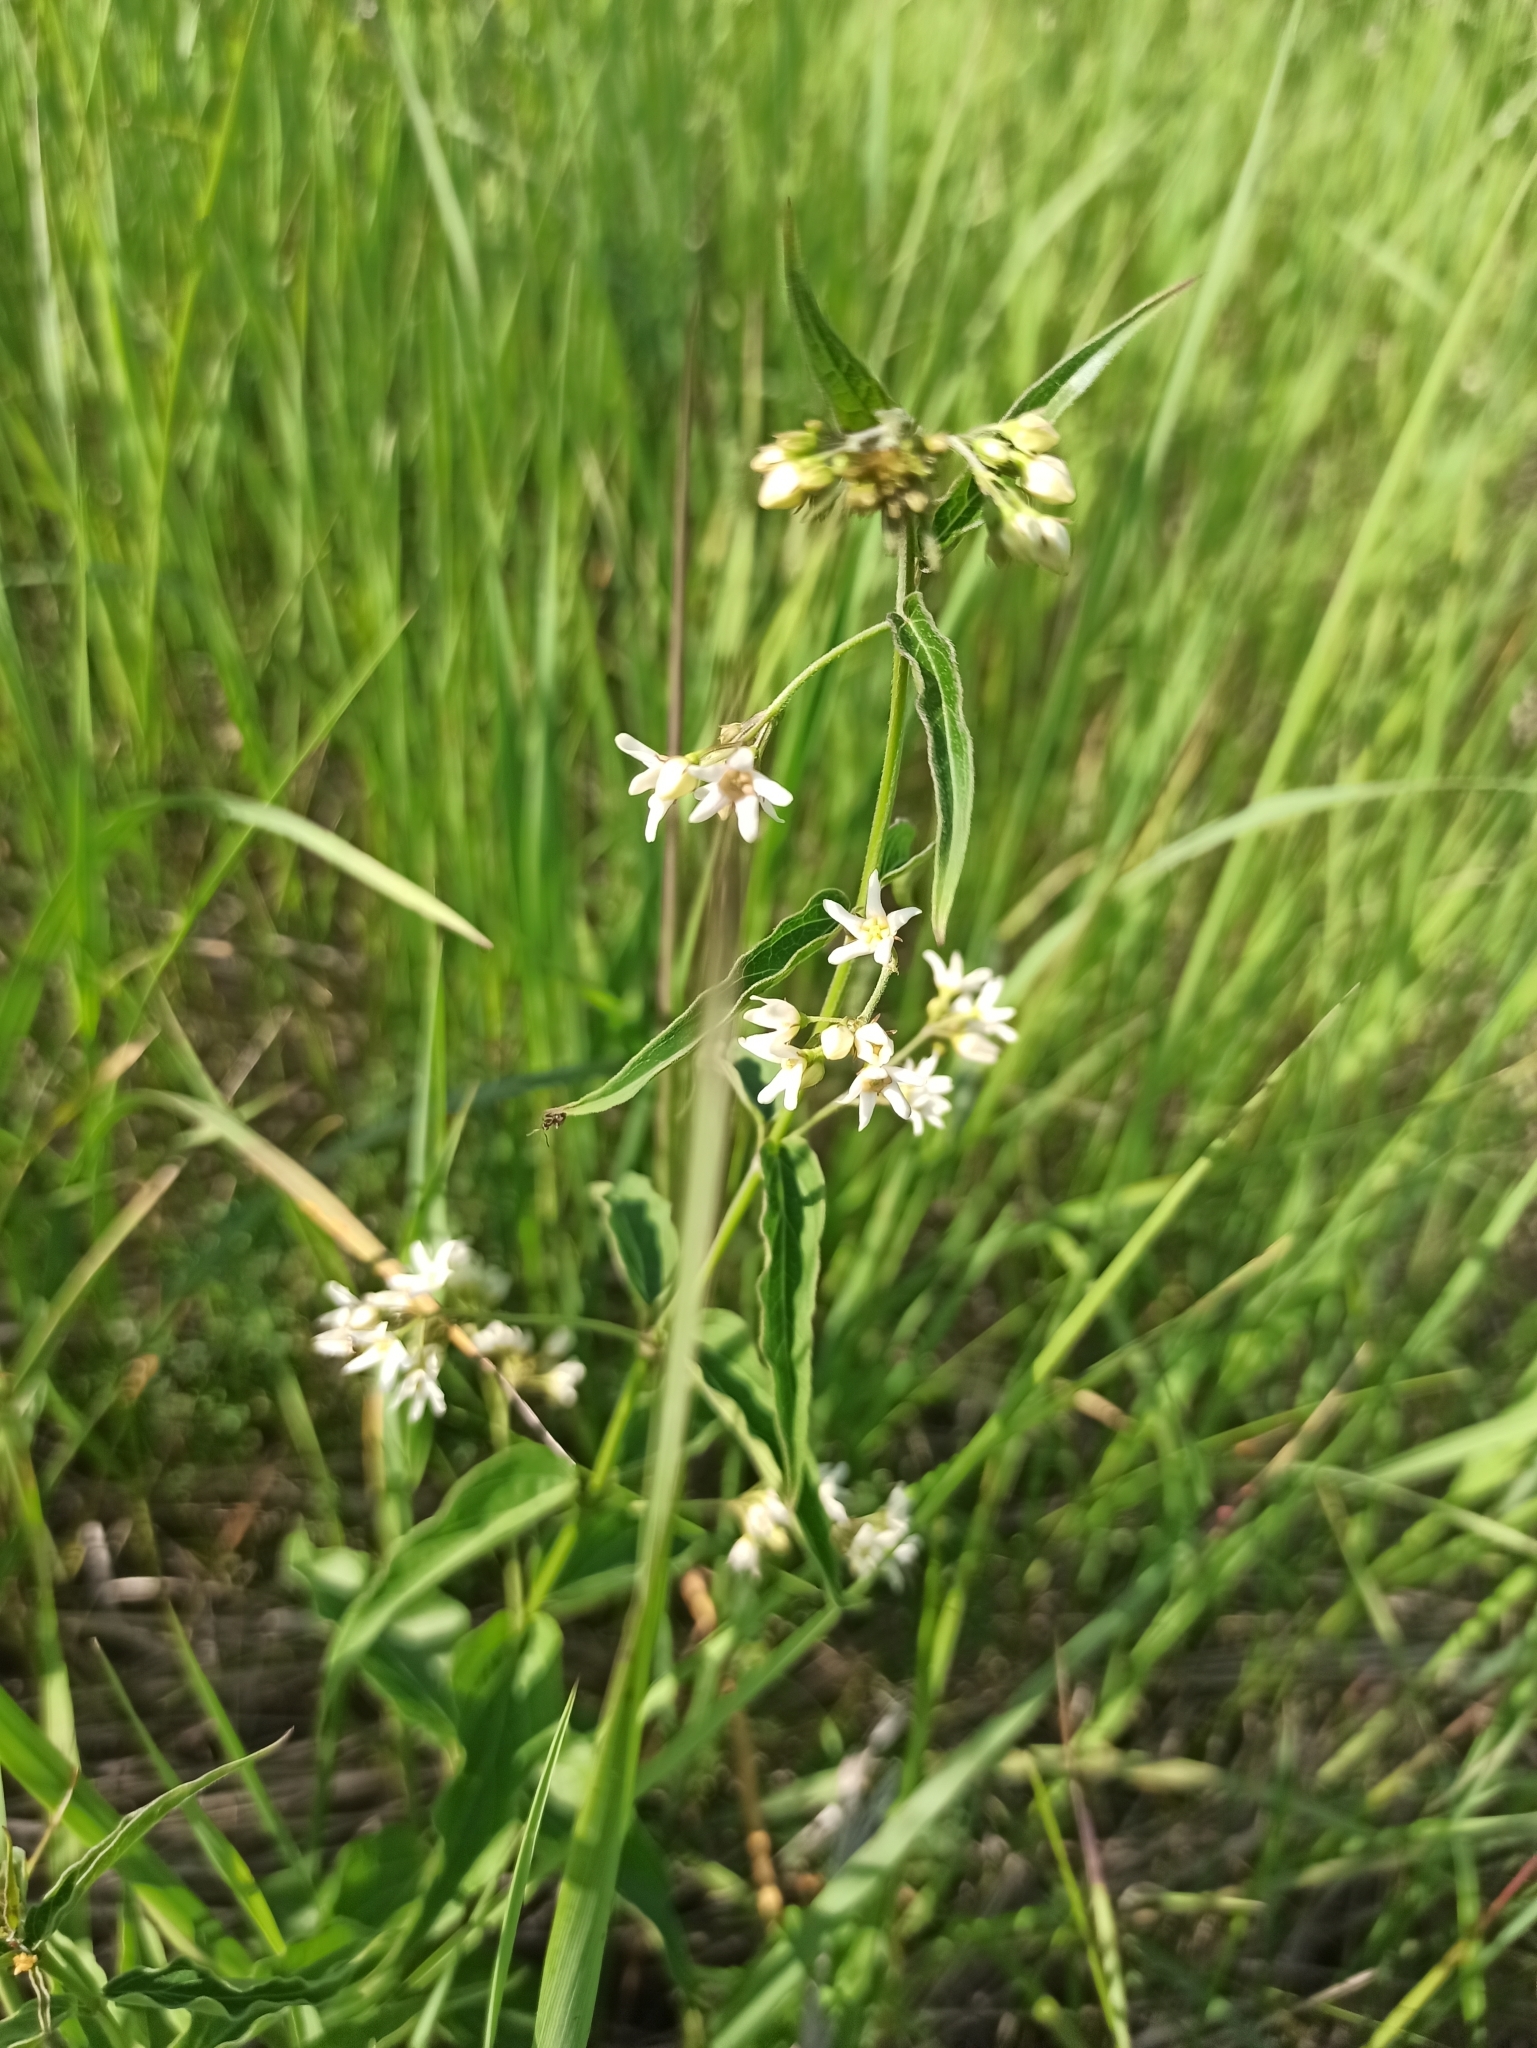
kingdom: Plantae
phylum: Tracheophyta
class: Magnoliopsida
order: Gentianales
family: Apocynaceae
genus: Vincetoxicum
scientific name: Vincetoxicum hirundinaria
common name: White swallowwort
